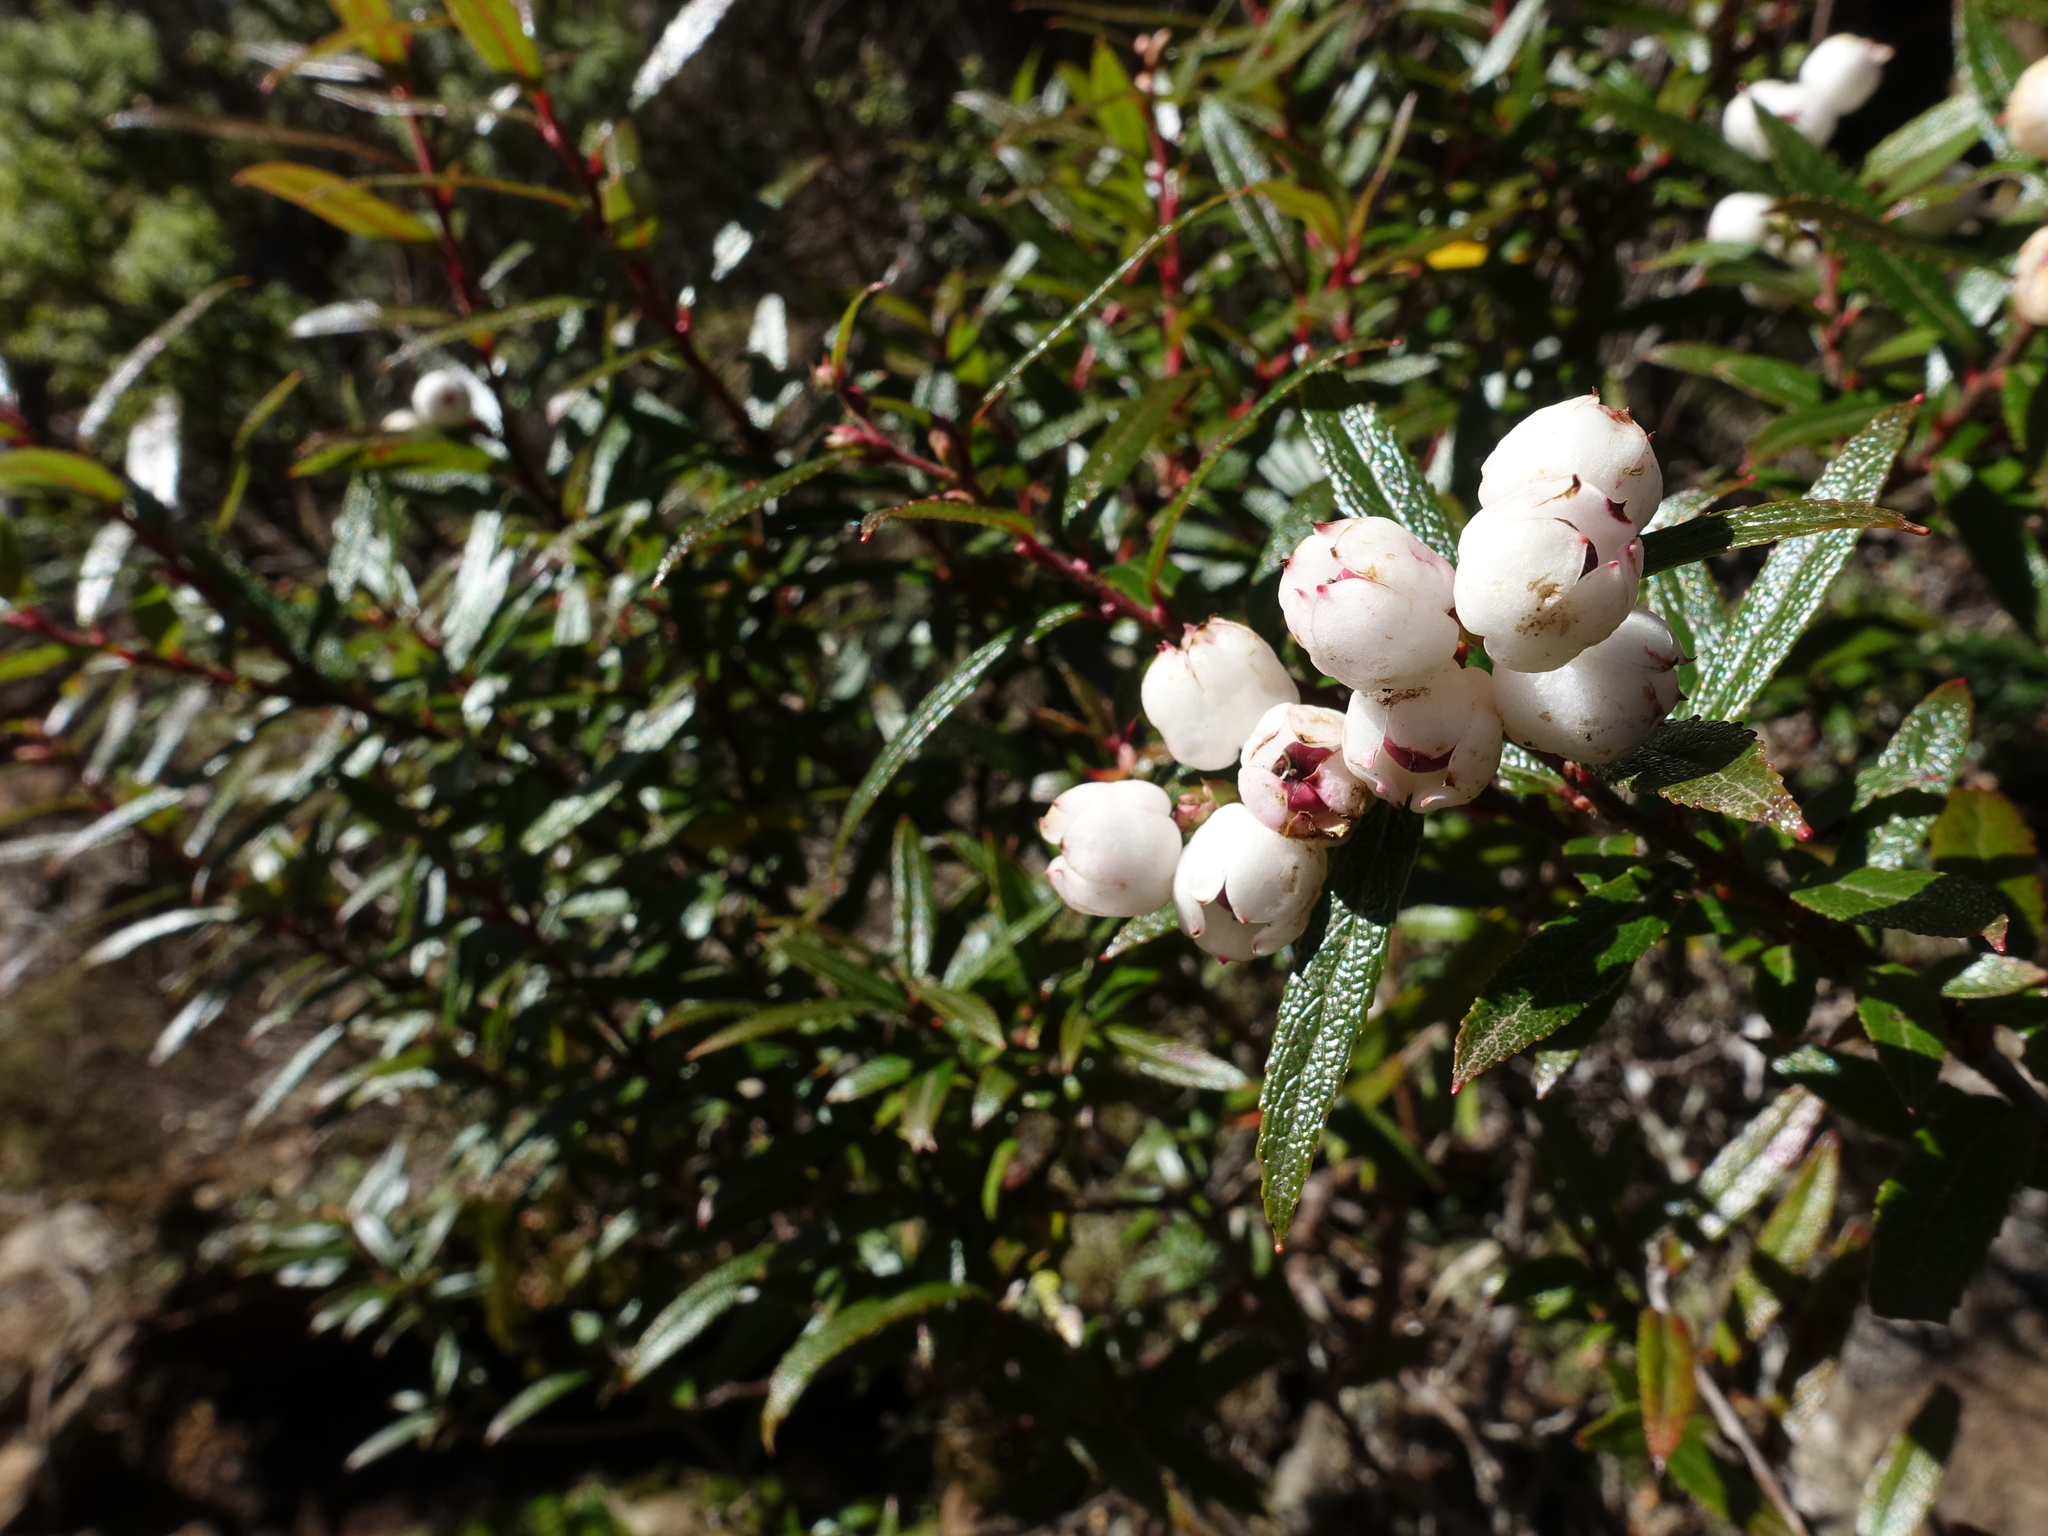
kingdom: Plantae
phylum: Tracheophyta
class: Magnoliopsida
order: Ericales
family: Ericaceae
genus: Gaultheria
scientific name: Gaultheria hispida
